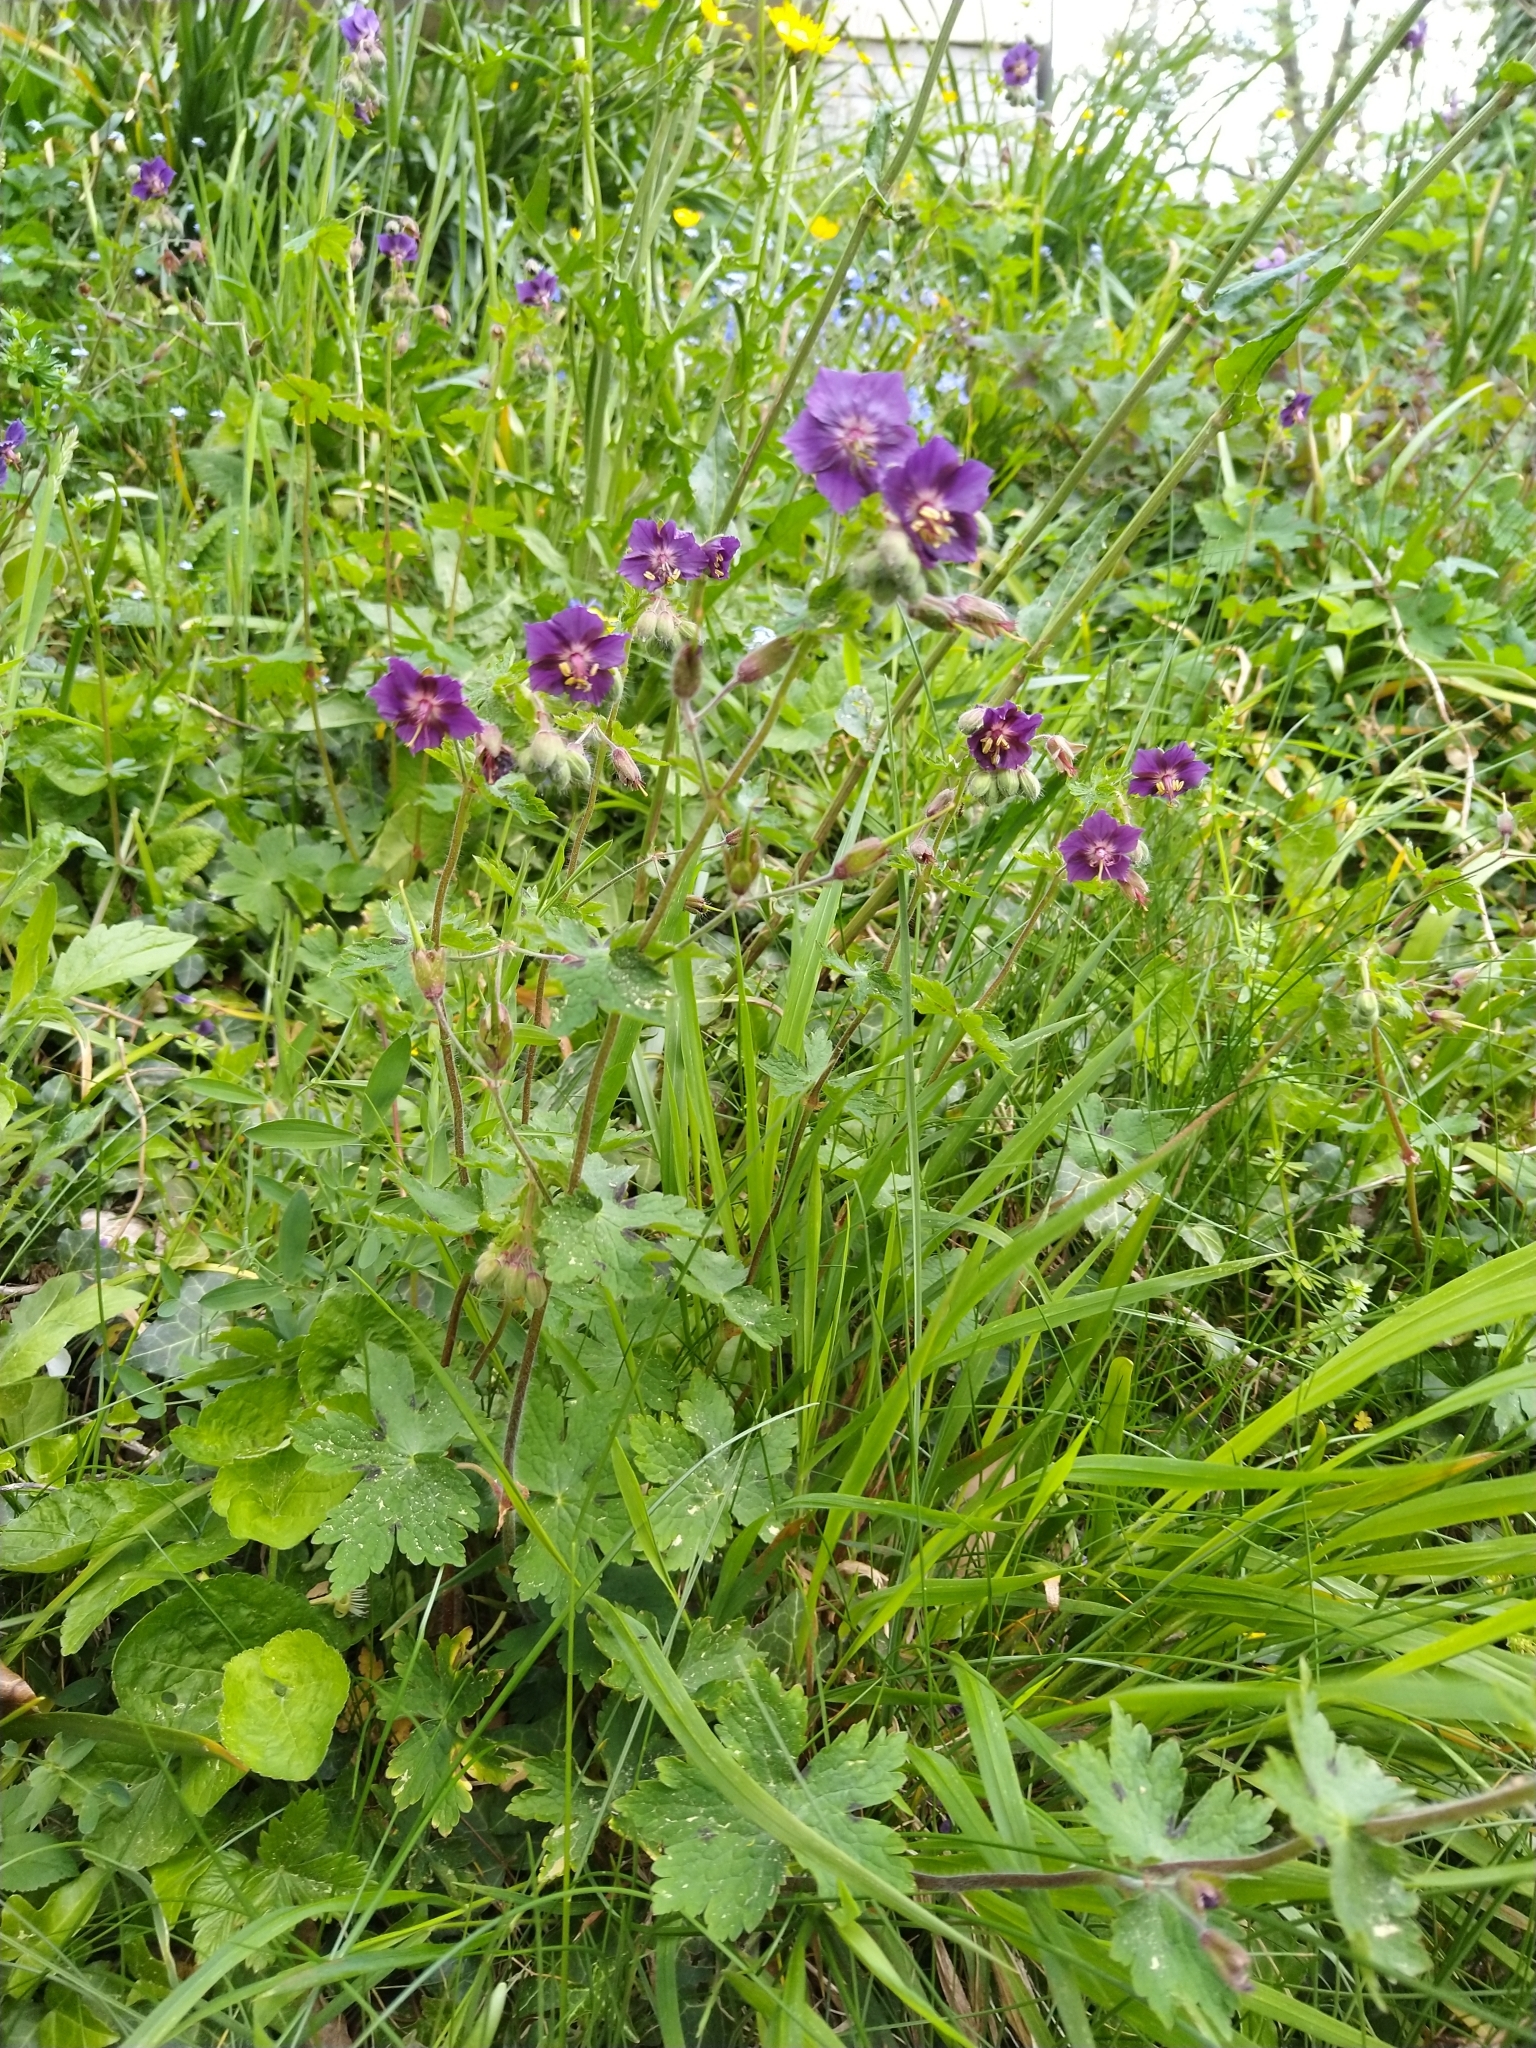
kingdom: Plantae
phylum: Tracheophyta
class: Magnoliopsida
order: Geraniales
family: Geraniaceae
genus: Geranium
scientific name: Geranium phaeum
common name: Dusky crane's-bill
